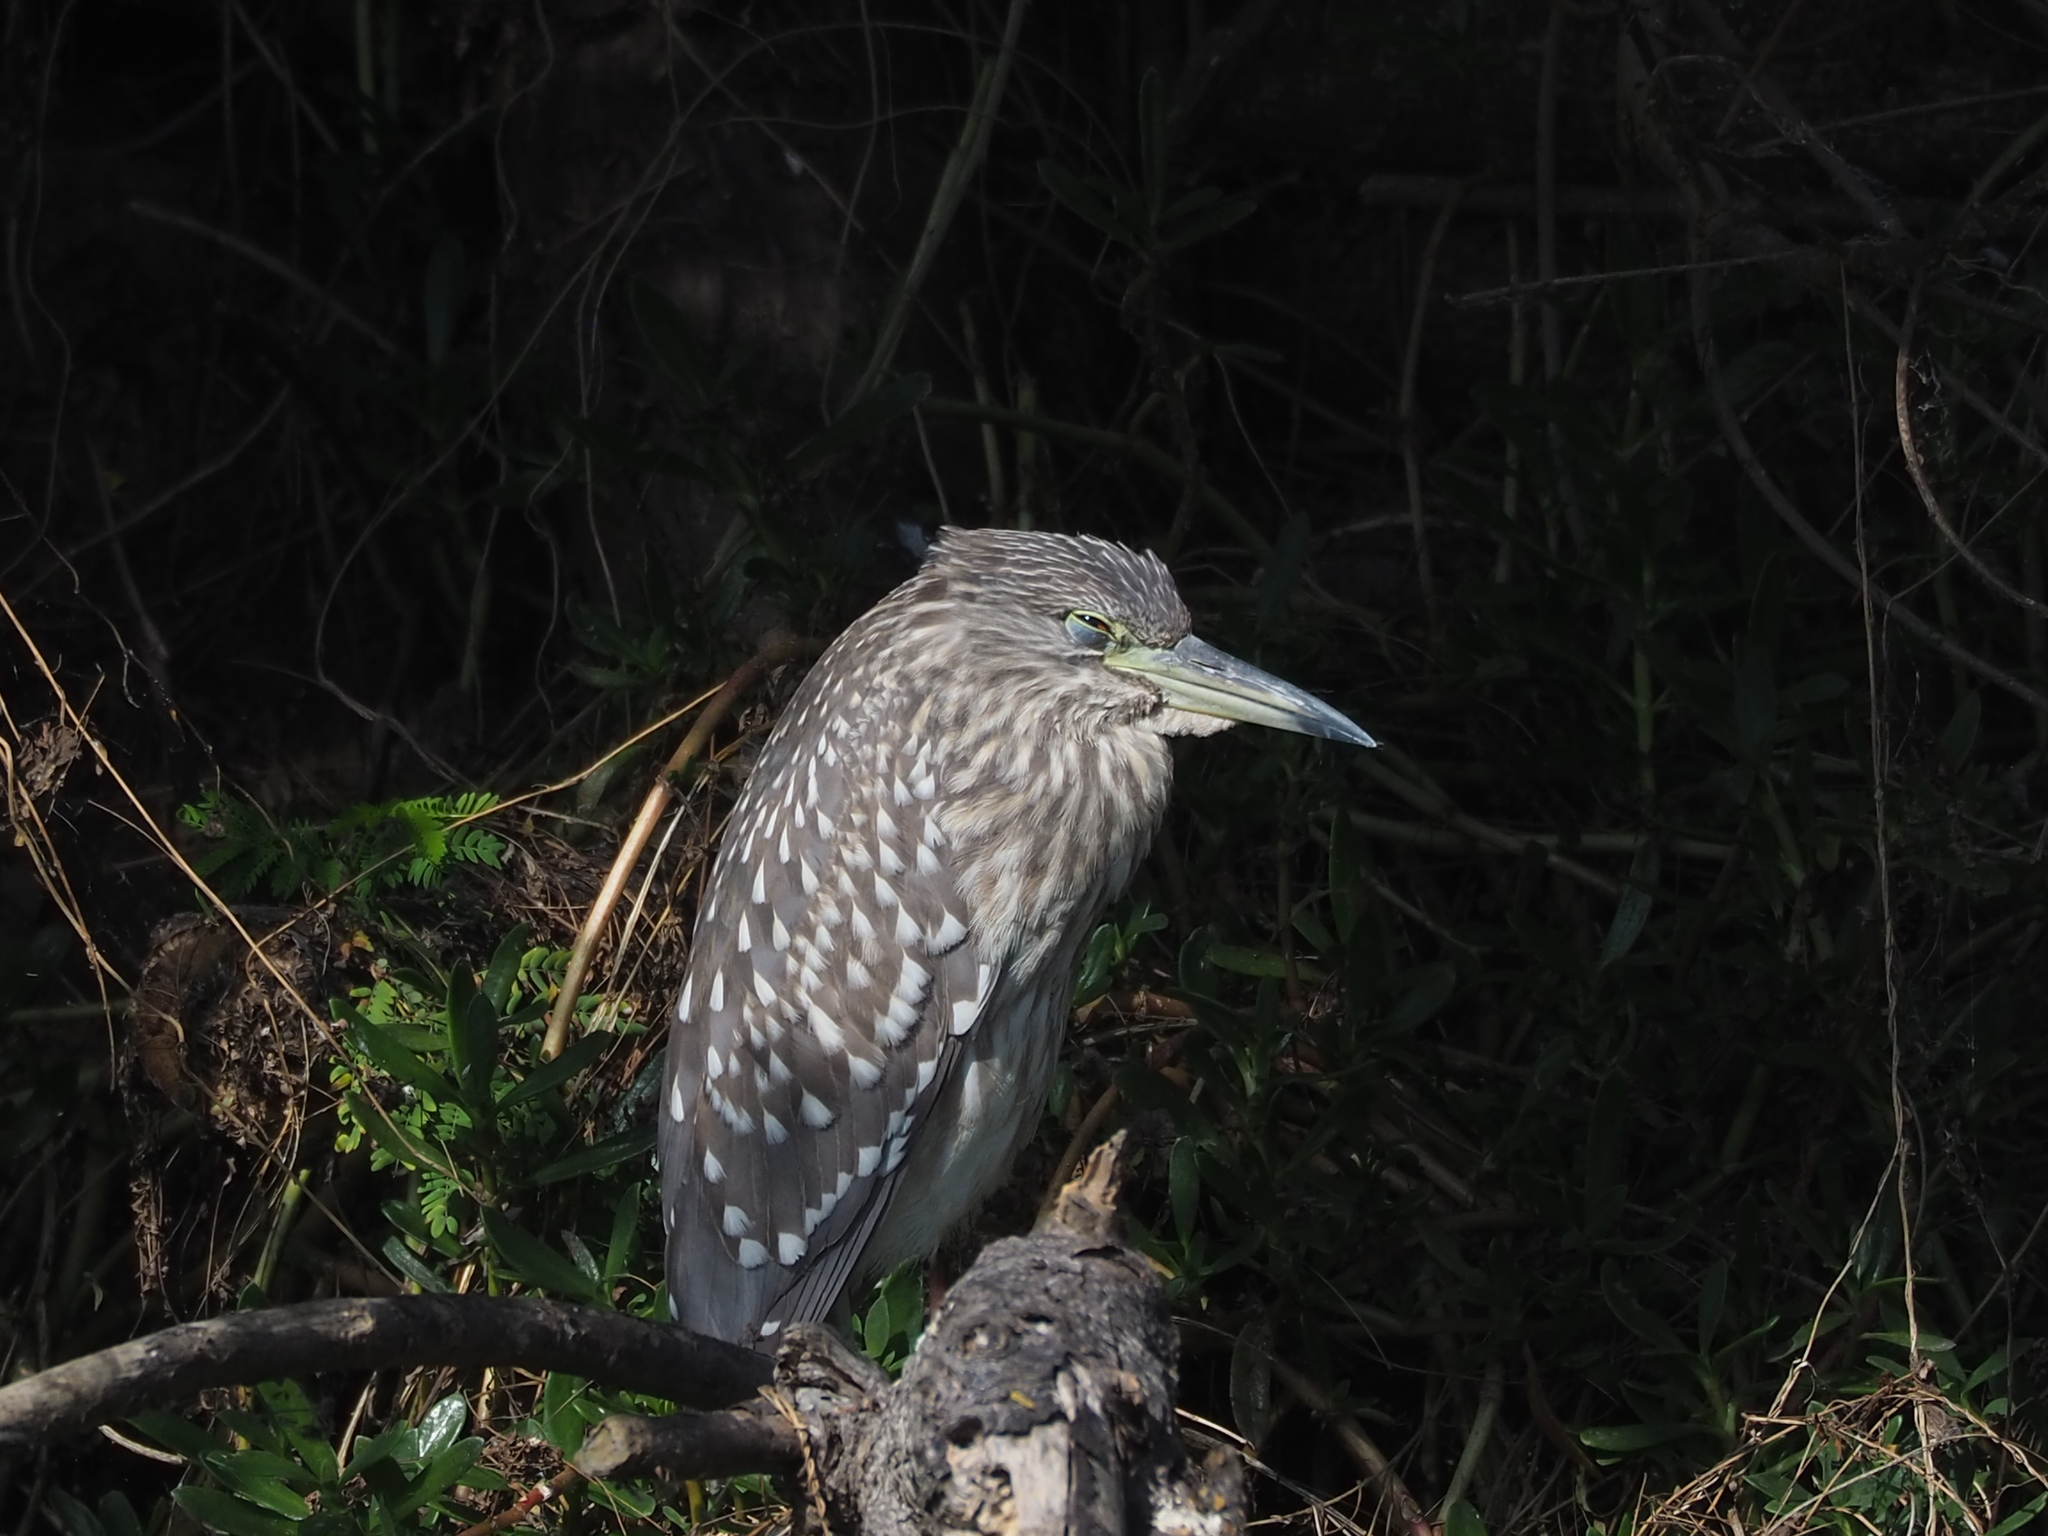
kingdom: Animalia
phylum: Chordata
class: Aves
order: Pelecaniformes
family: Ardeidae
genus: Nycticorax
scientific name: Nycticorax nycticorax
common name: Black-crowned night heron
